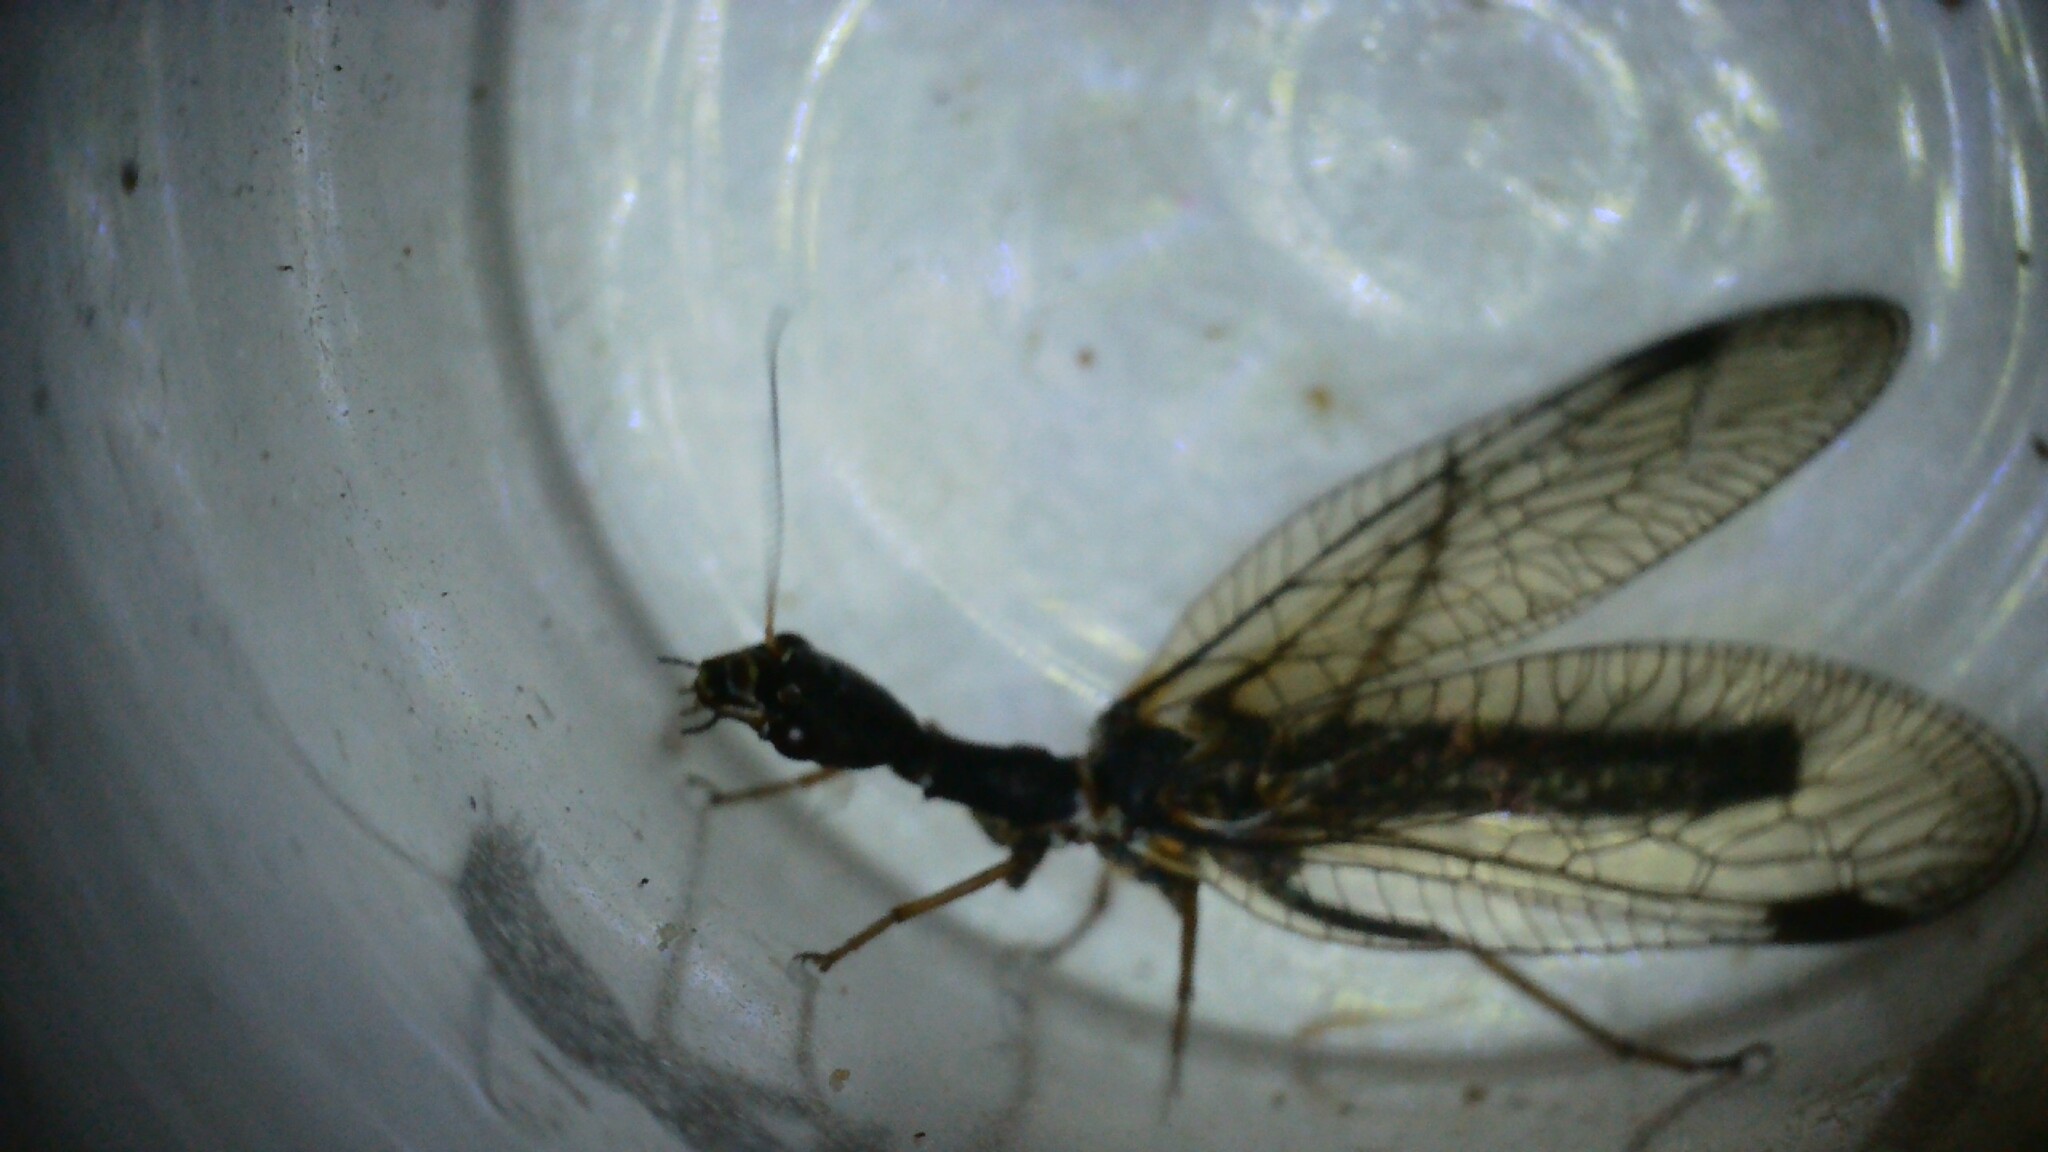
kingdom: Animalia
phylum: Arthropoda
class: Insecta
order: Raphidioptera
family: Raphidiidae
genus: Phaeostigma
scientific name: Phaeostigma notatum
